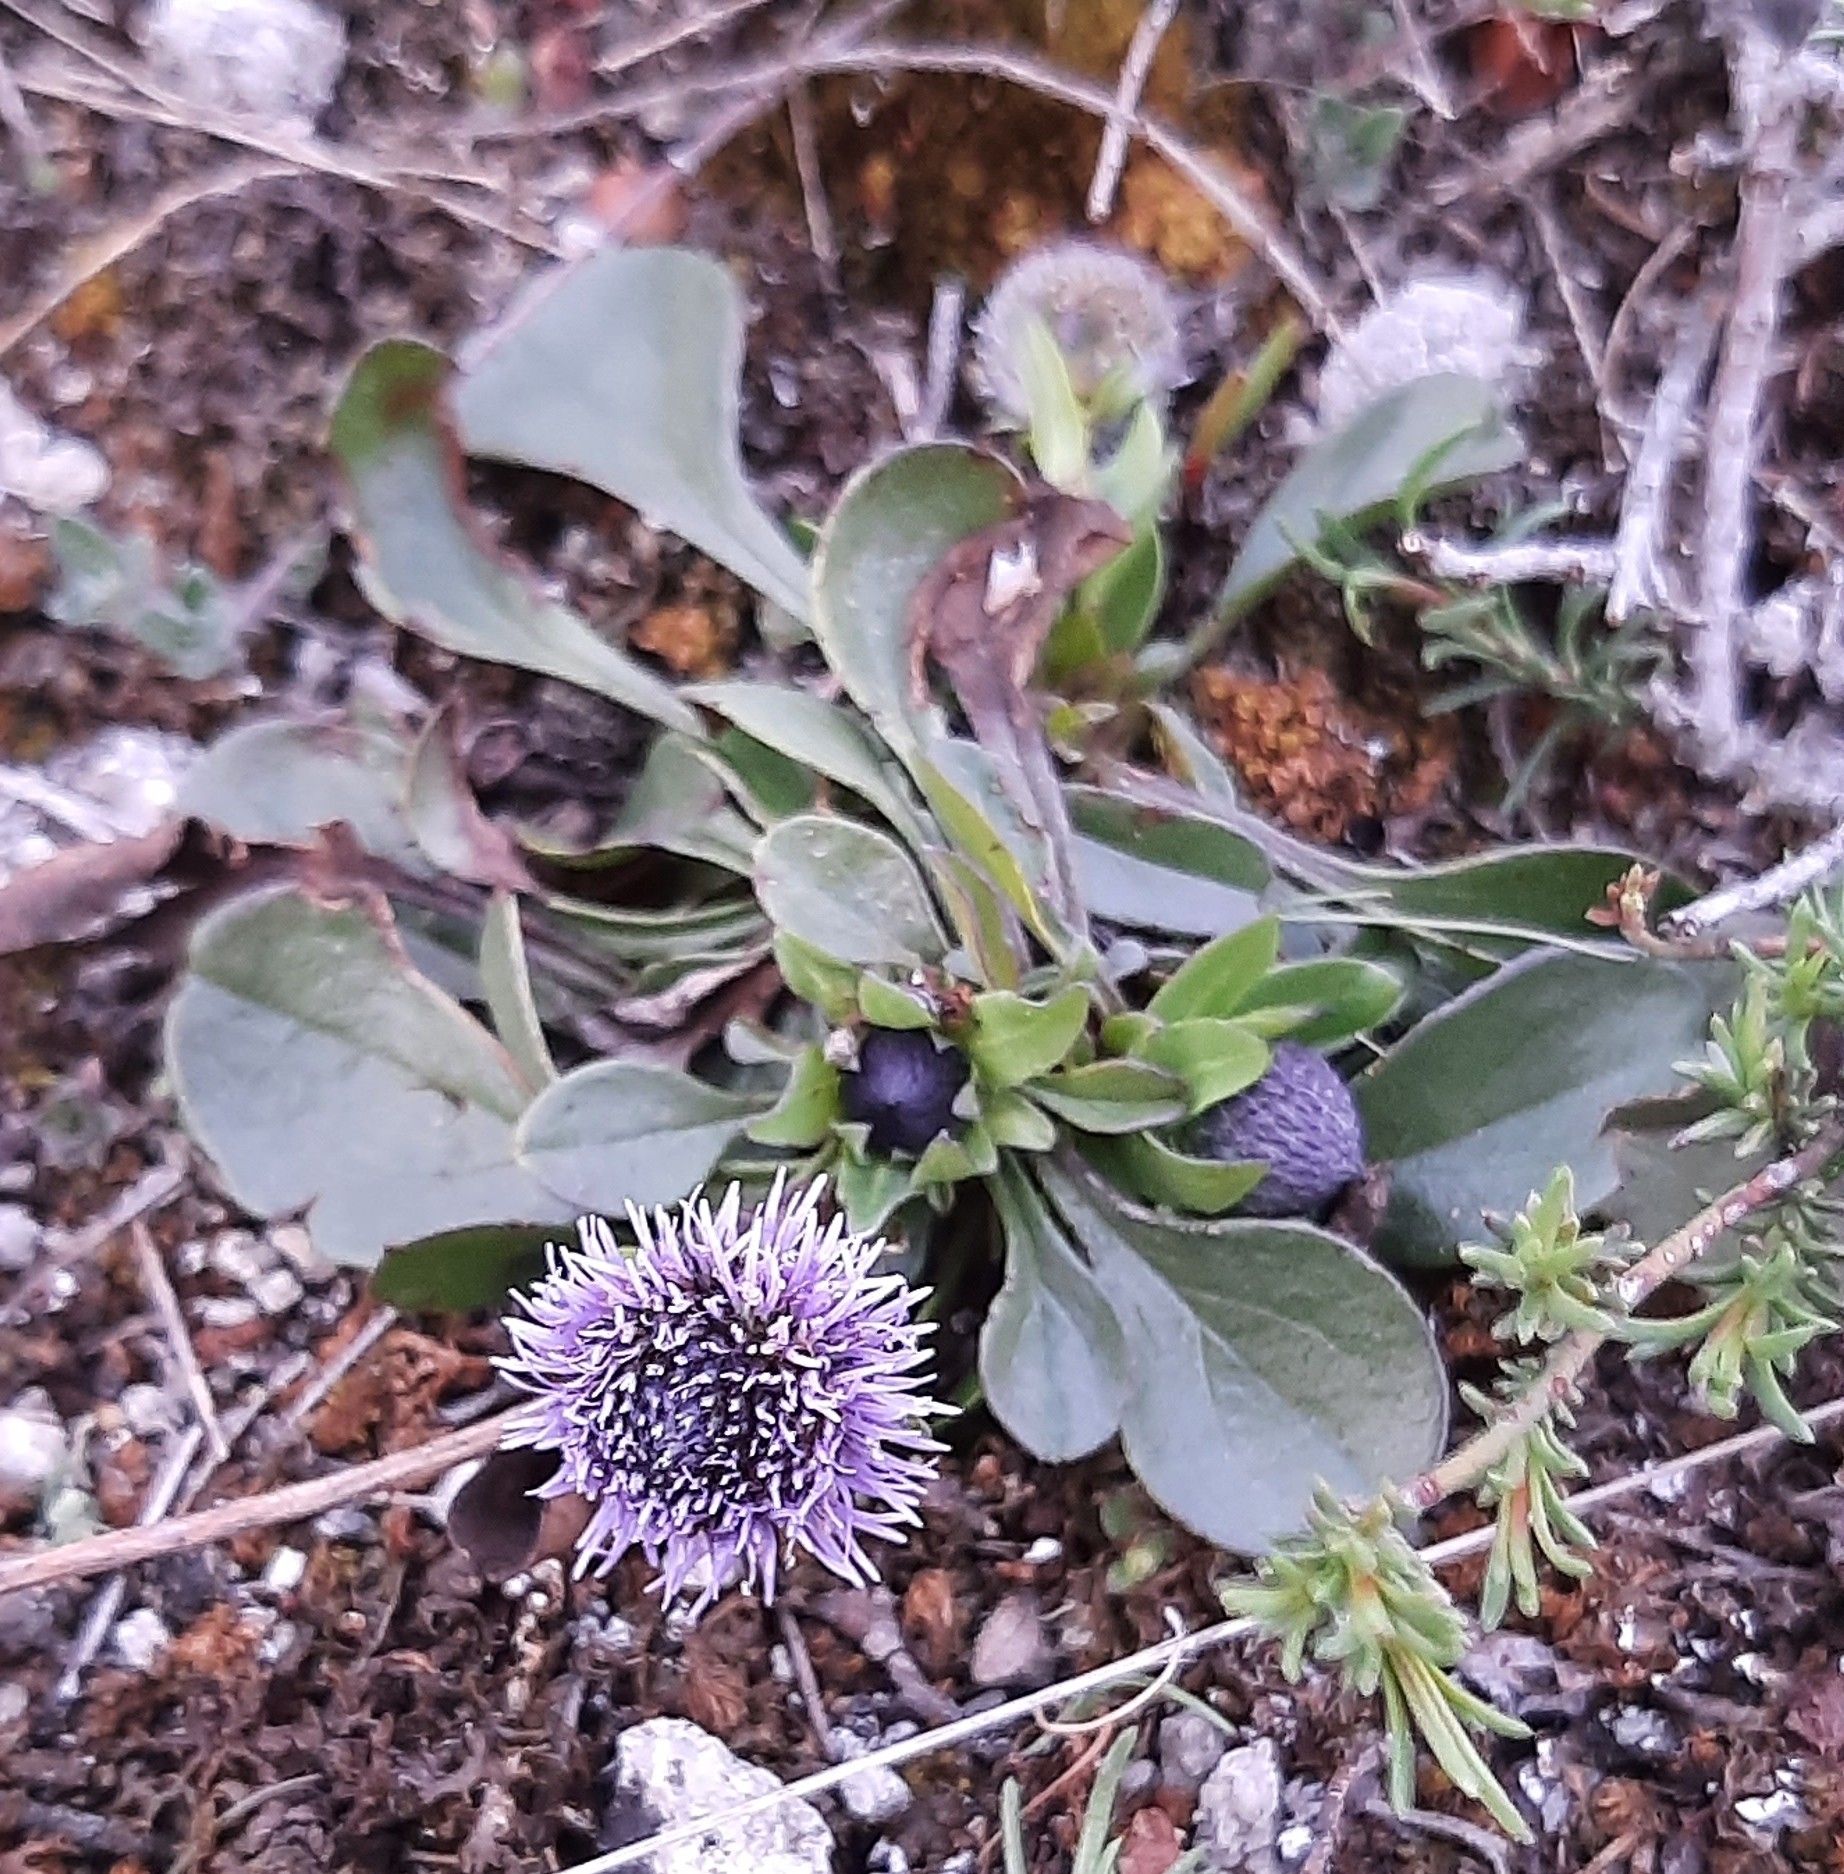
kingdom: Plantae
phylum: Tracheophyta
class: Magnoliopsida
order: Lamiales
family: Plantaginaceae
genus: Globularia
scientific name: Globularia bisnagarica
